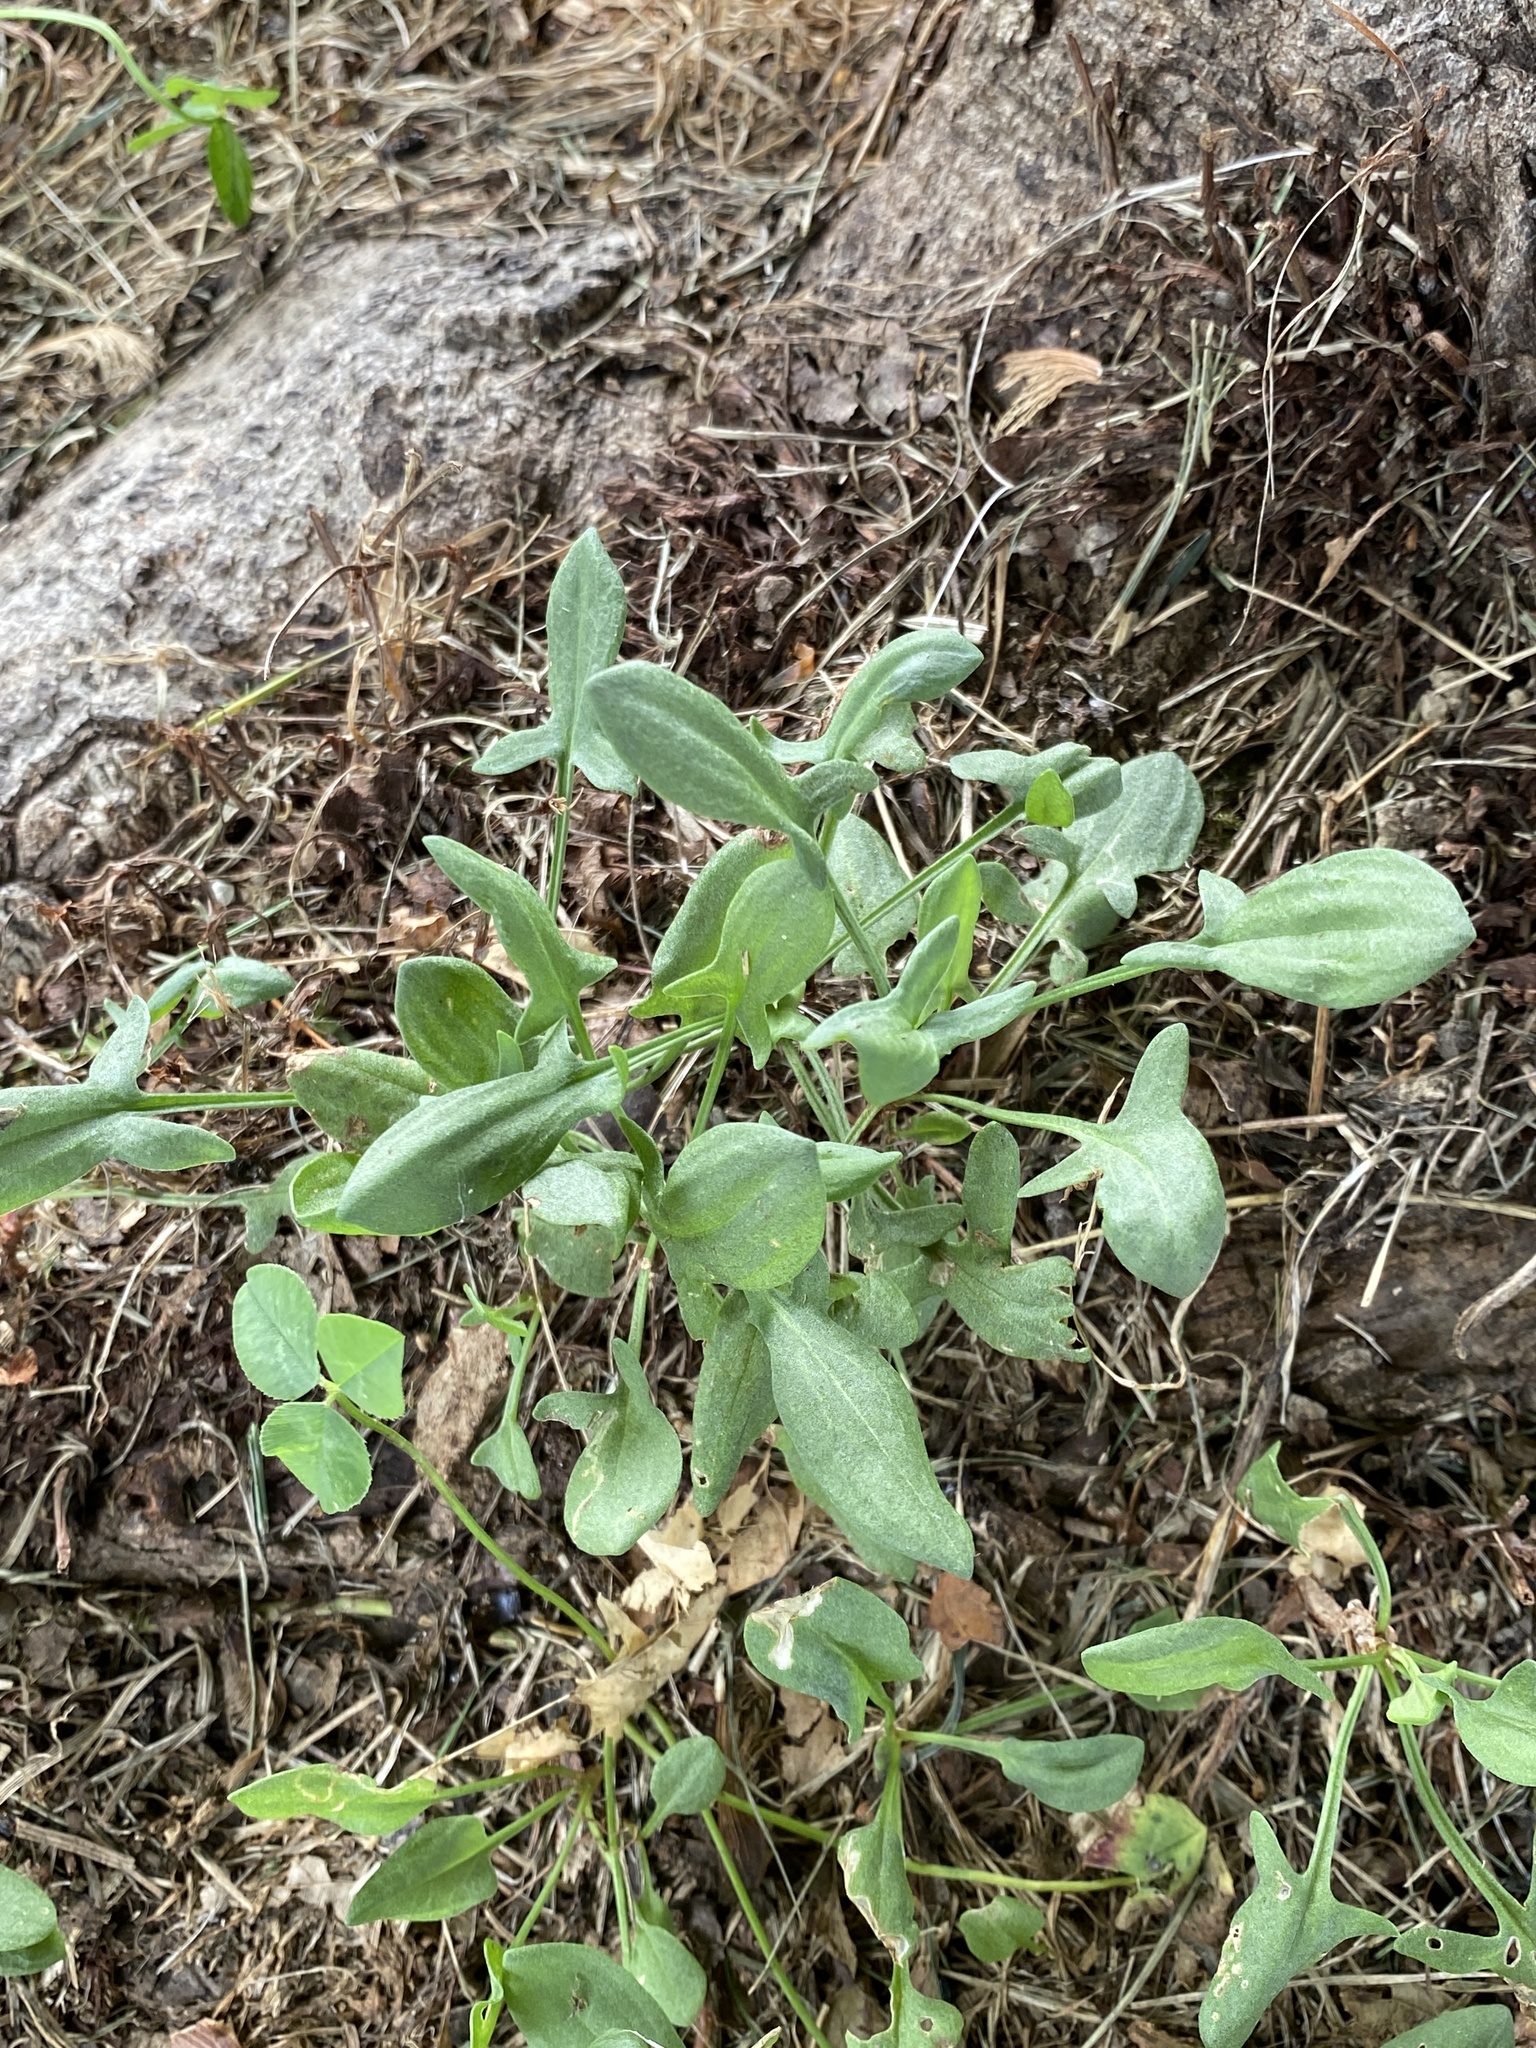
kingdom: Plantae
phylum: Tracheophyta
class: Magnoliopsida
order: Caryophyllales
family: Polygonaceae
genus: Rumex
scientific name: Rumex acetosella
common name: Common sheep sorrel
